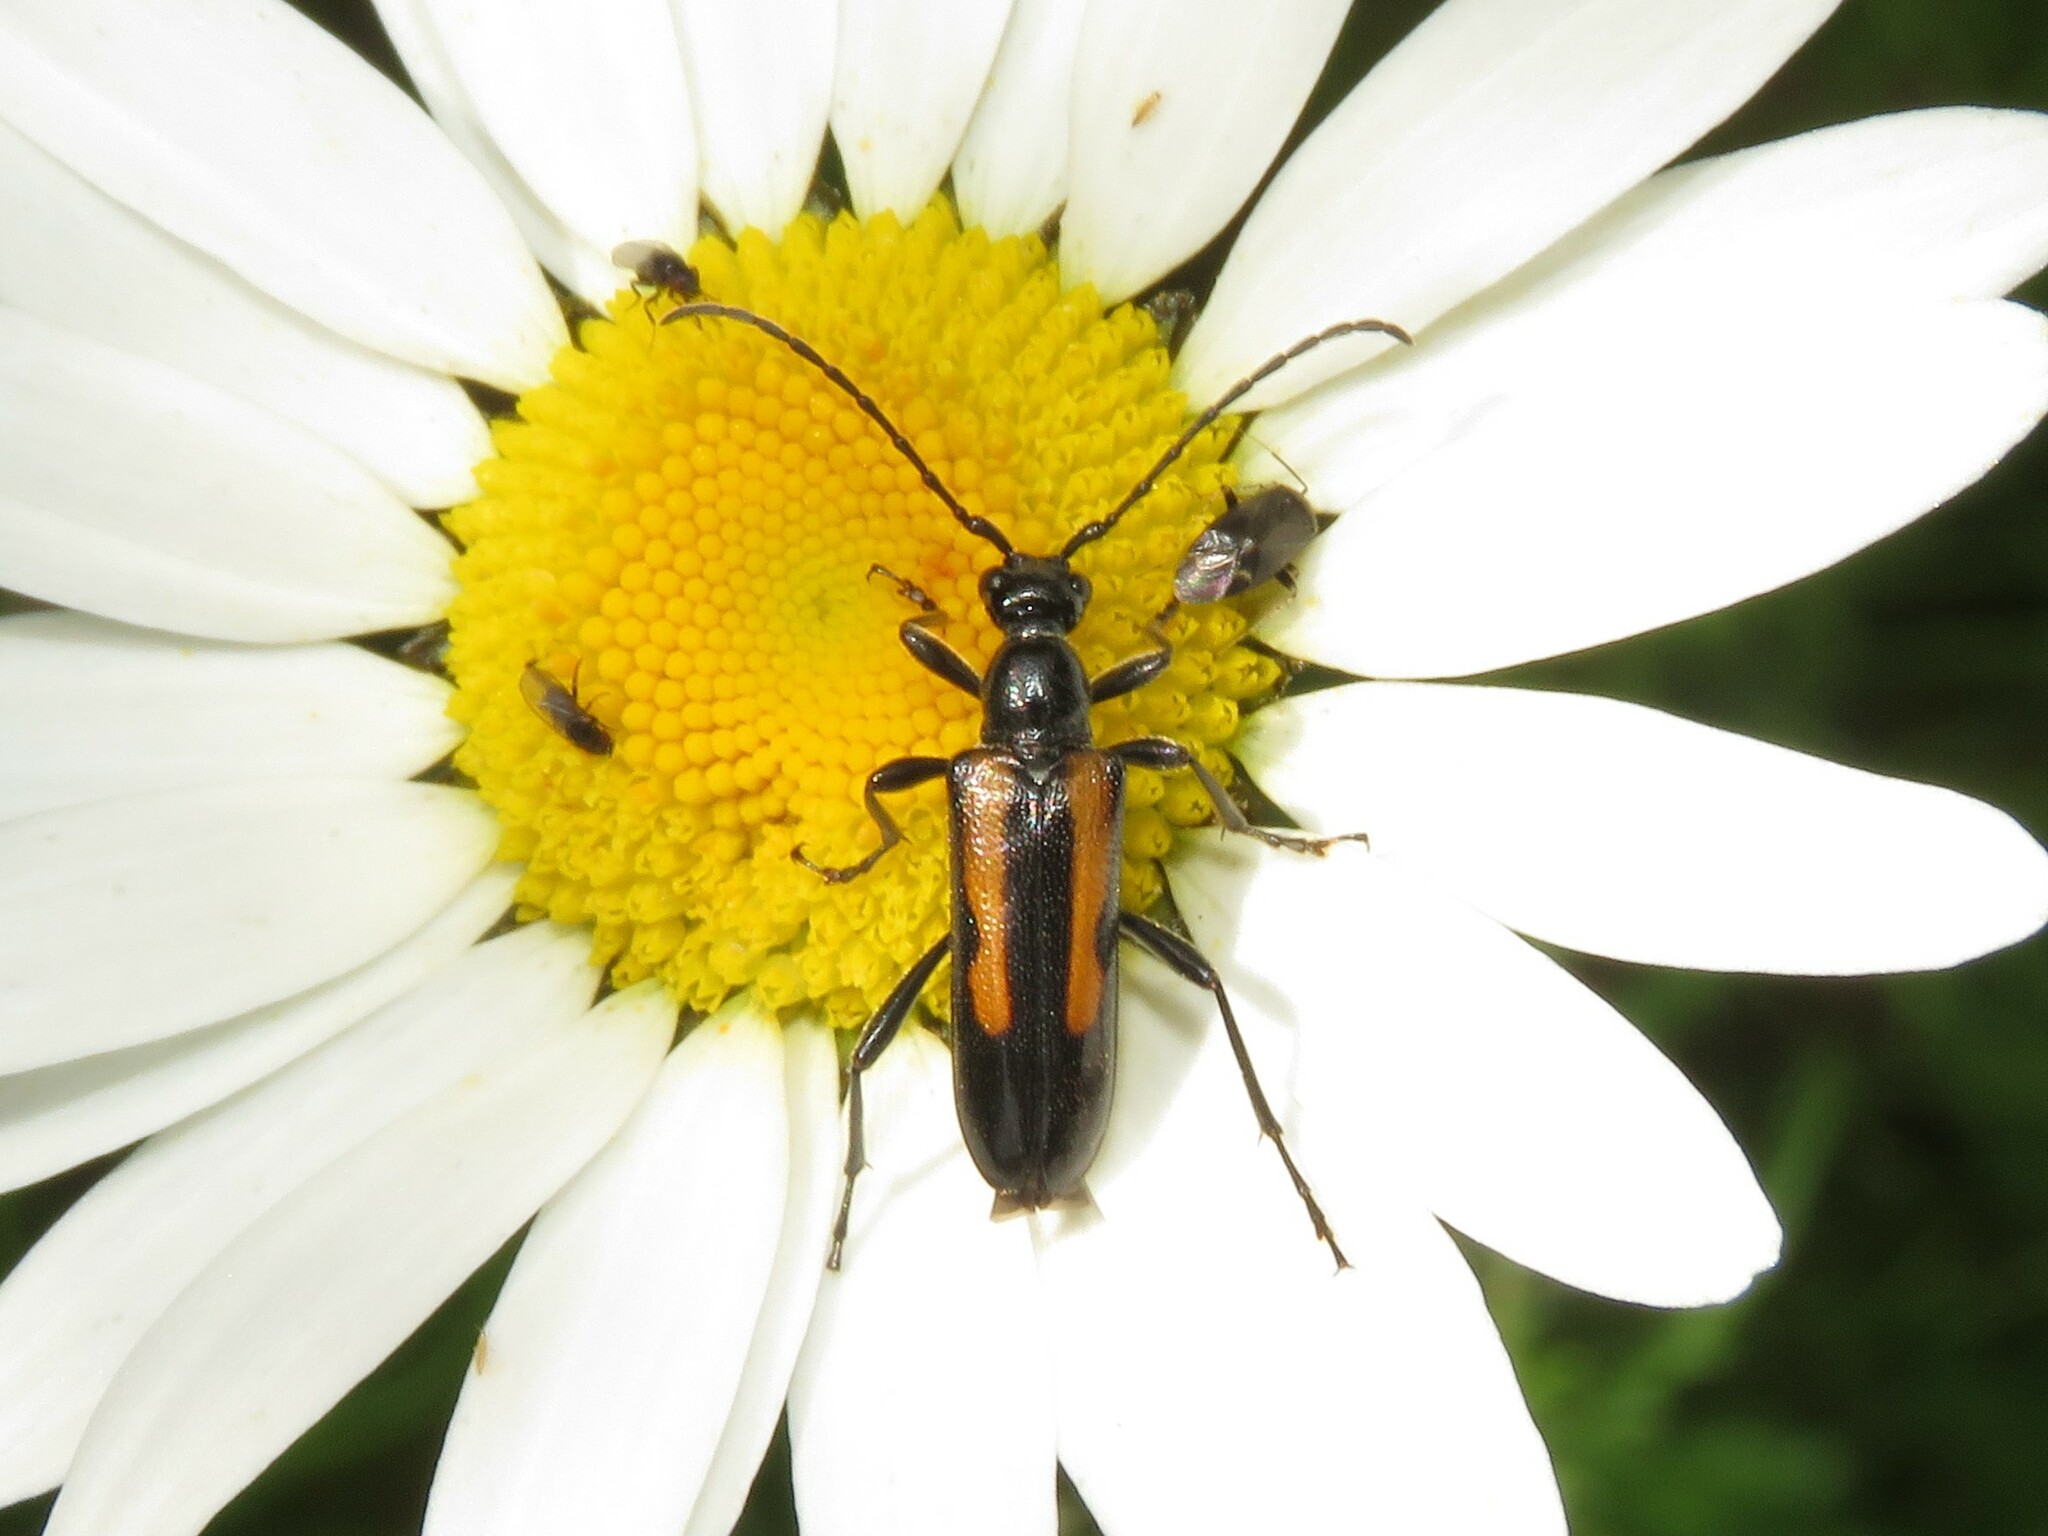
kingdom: Animalia
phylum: Arthropoda
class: Insecta
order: Coleoptera
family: Cerambycidae
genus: Strangalepta
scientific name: Strangalepta abbreviata
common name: Strangalepta flower longhorn beetle
